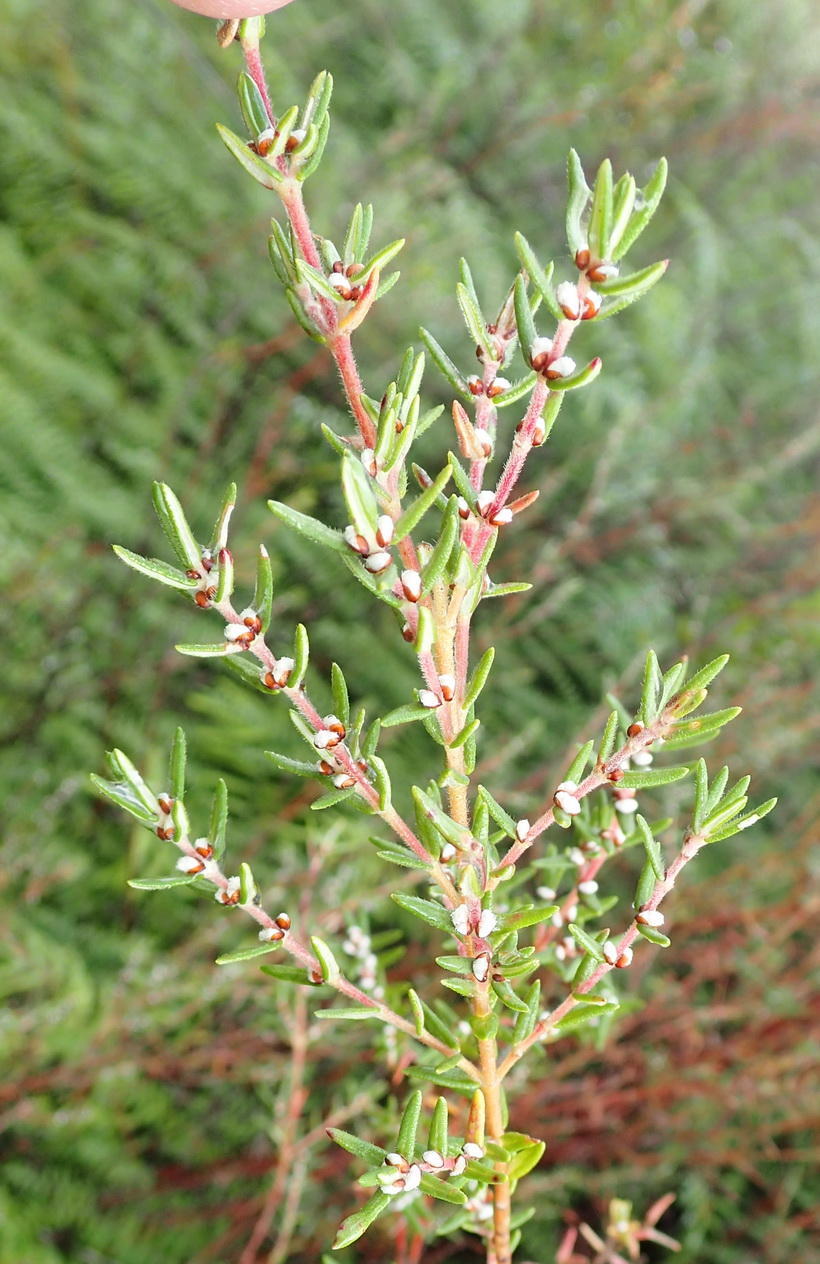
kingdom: Plantae
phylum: Tracheophyta
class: Magnoliopsida
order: Cornales
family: Grubbiaceae
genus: Grubbia
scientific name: Grubbia rosmarinifolia
